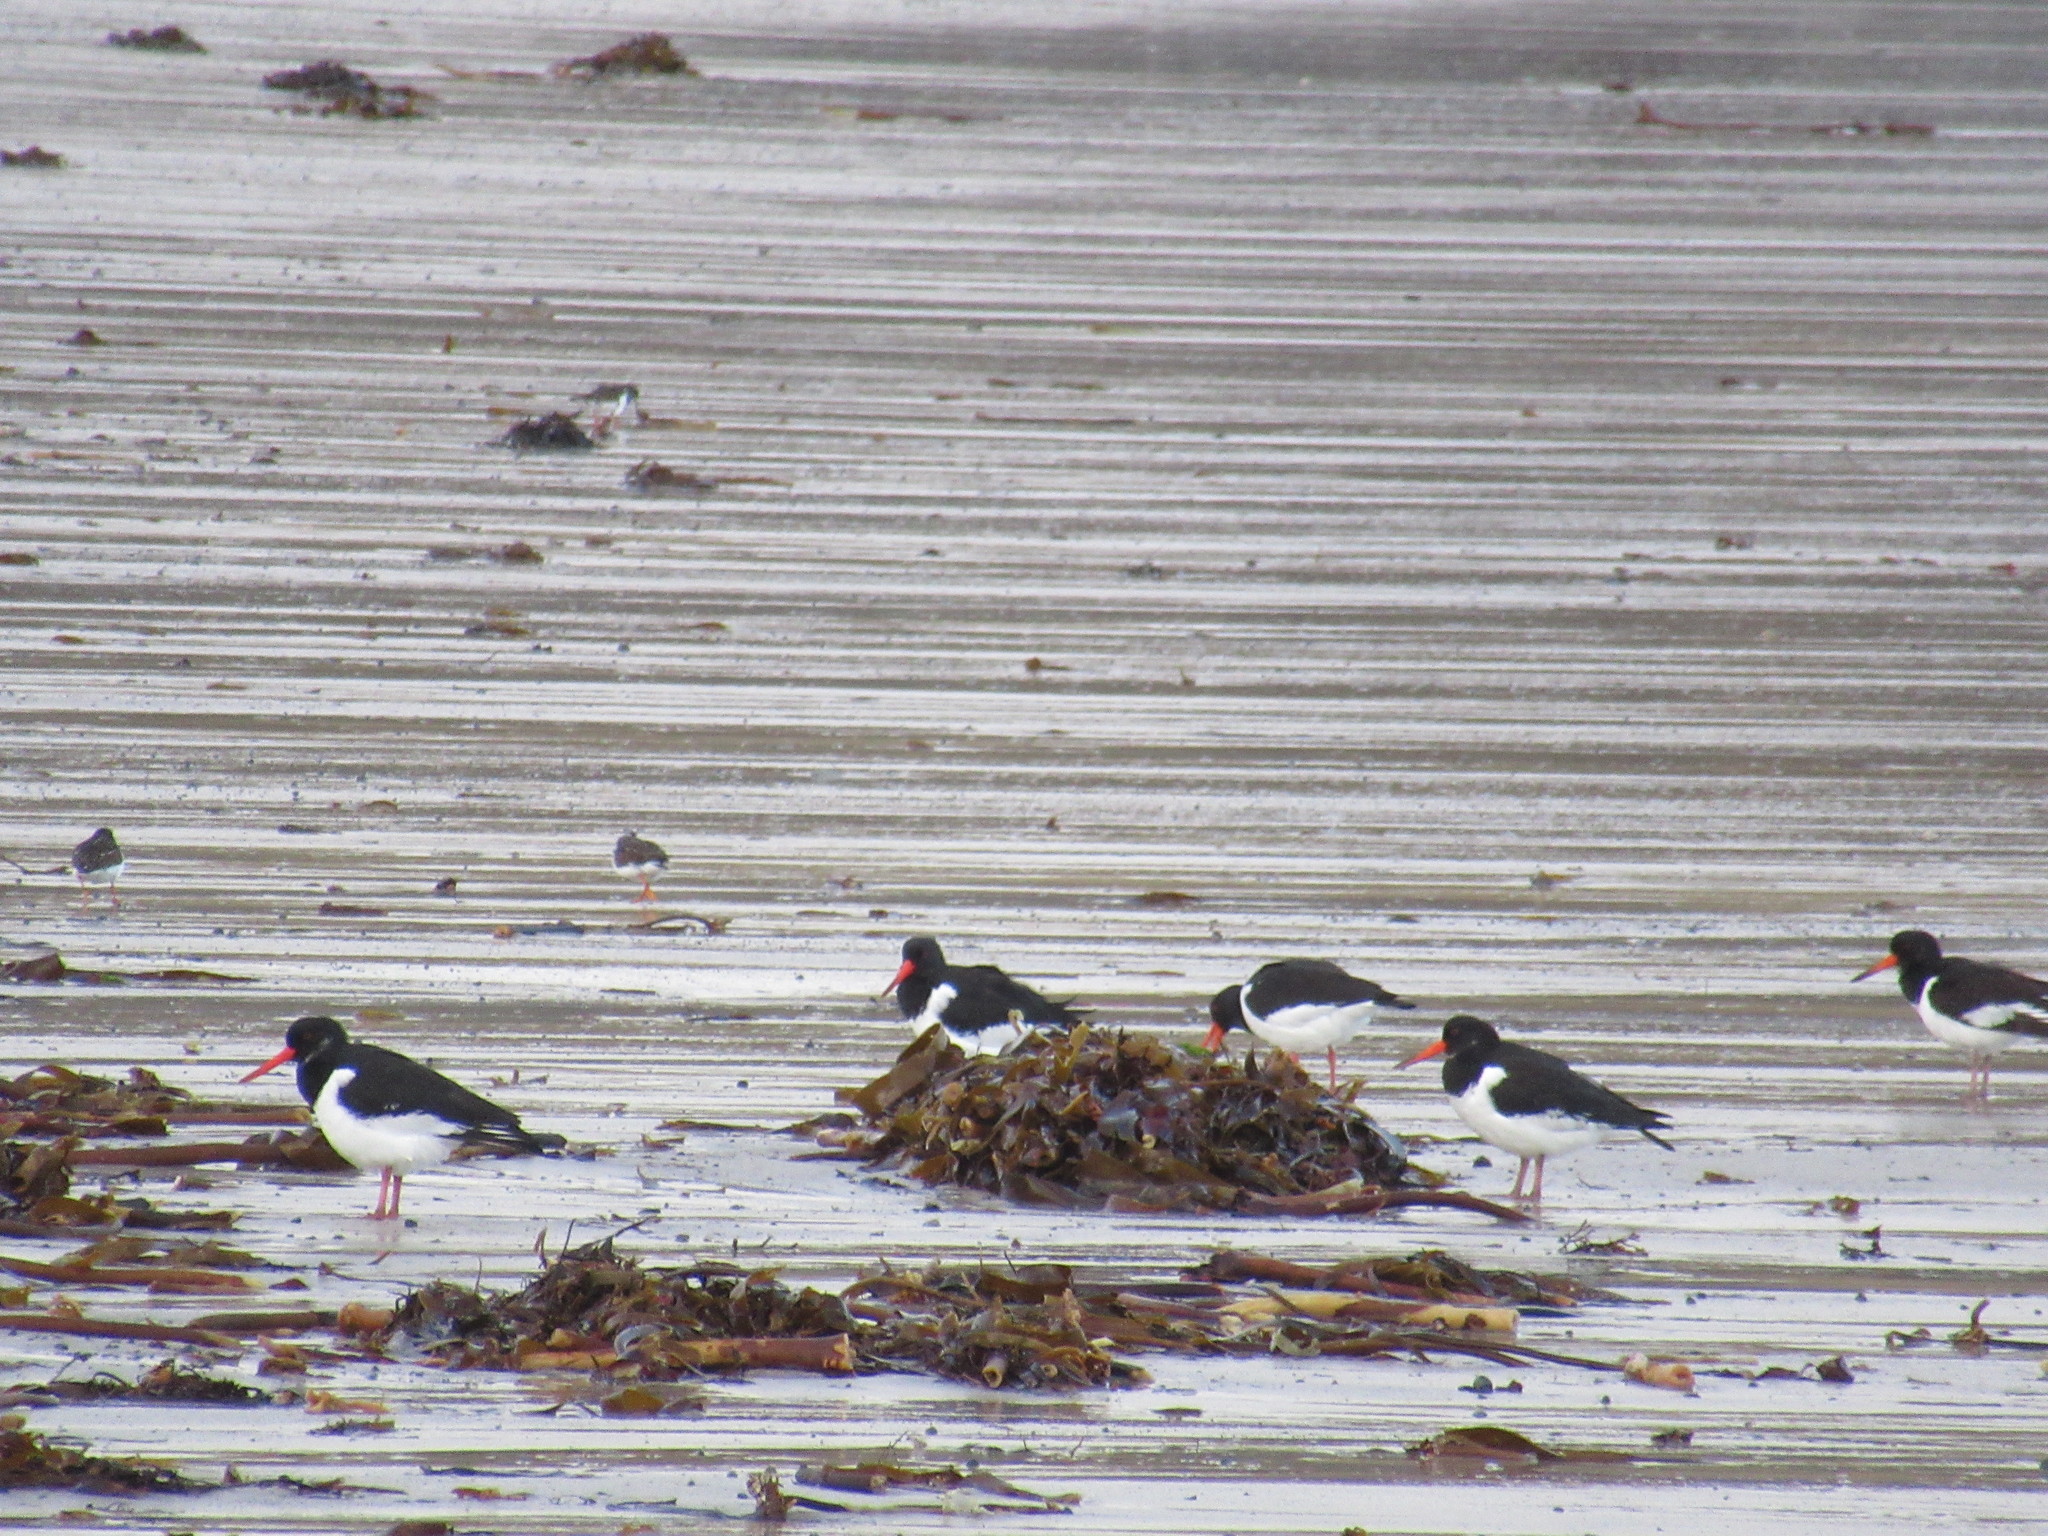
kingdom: Animalia
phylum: Chordata
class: Aves
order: Charadriiformes
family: Haematopodidae
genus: Haematopus
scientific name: Haematopus ostralegus
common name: Eurasian oystercatcher
